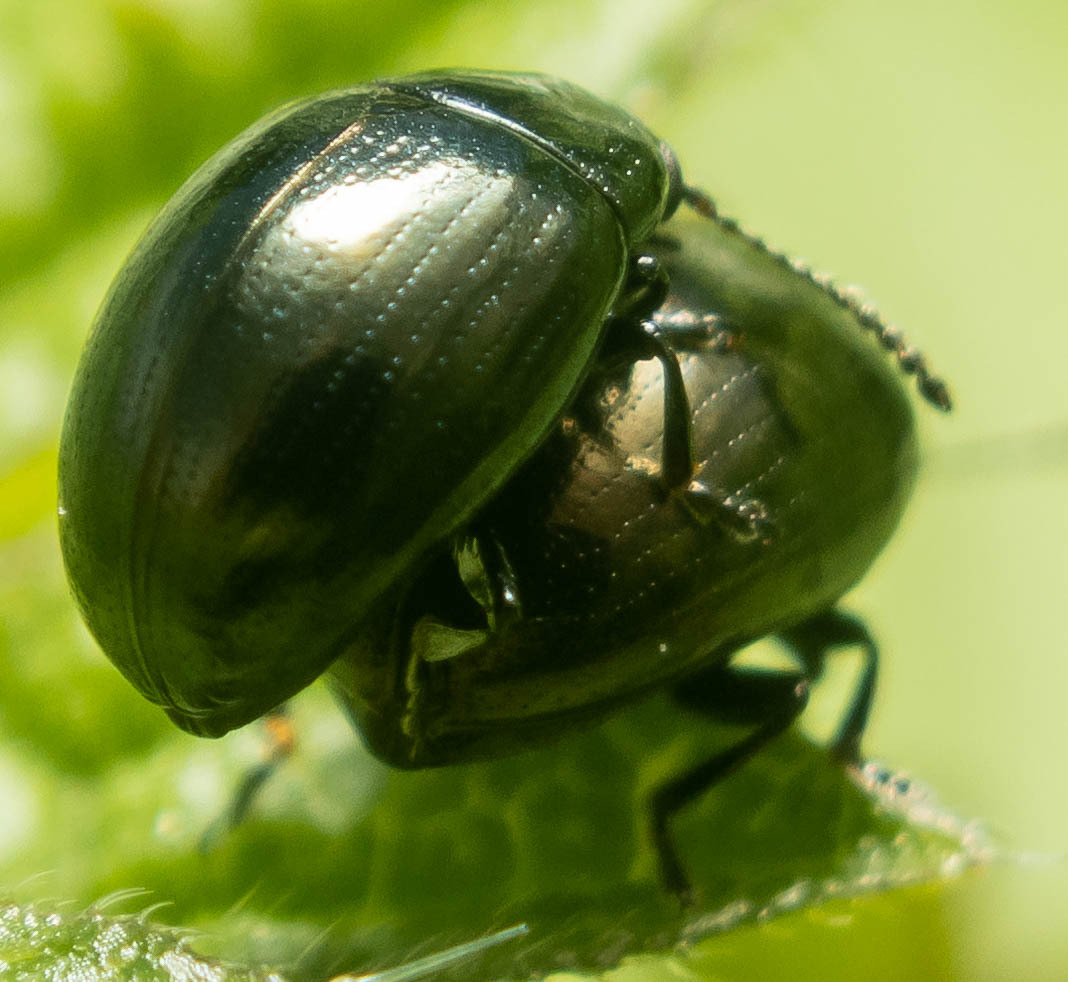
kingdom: Animalia
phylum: Arthropoda
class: Insecta
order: Coleoptera
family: Chrysomelidae
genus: Phaedon
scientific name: Phaedon tumidulus
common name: Celery leaf beetle
